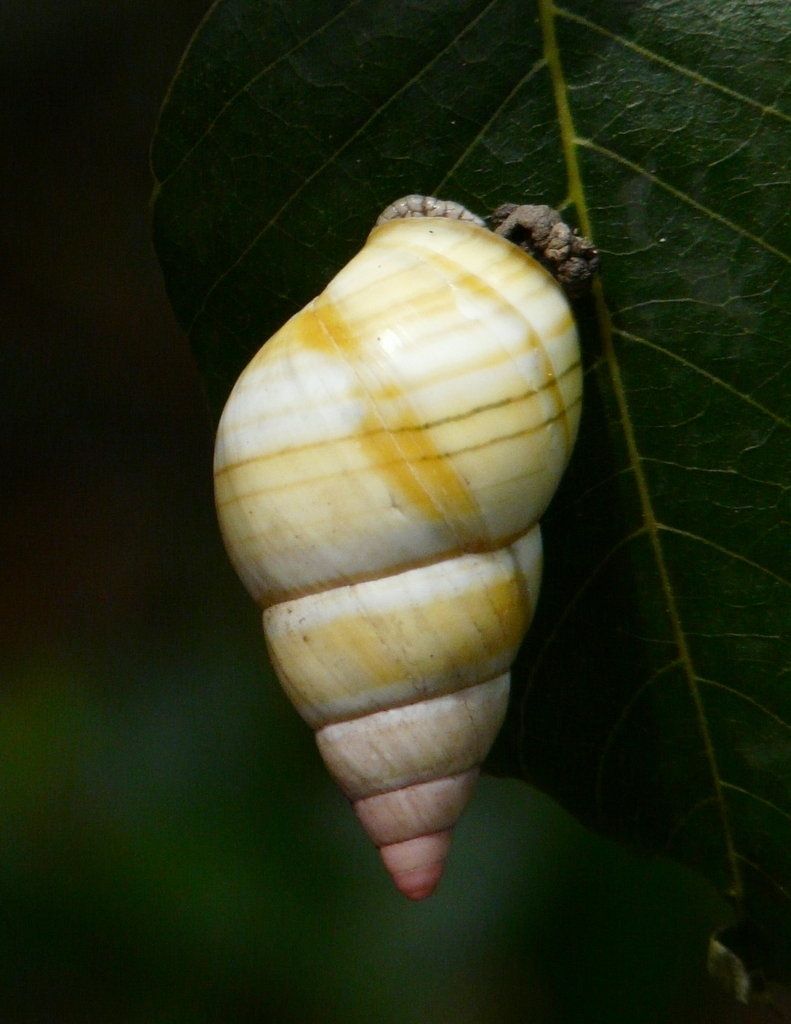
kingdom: Animalia
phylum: Mollusca
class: Gastropoda
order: Stylommatophora
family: Orthalicidae
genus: Liguus
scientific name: Liguus fasciatus
